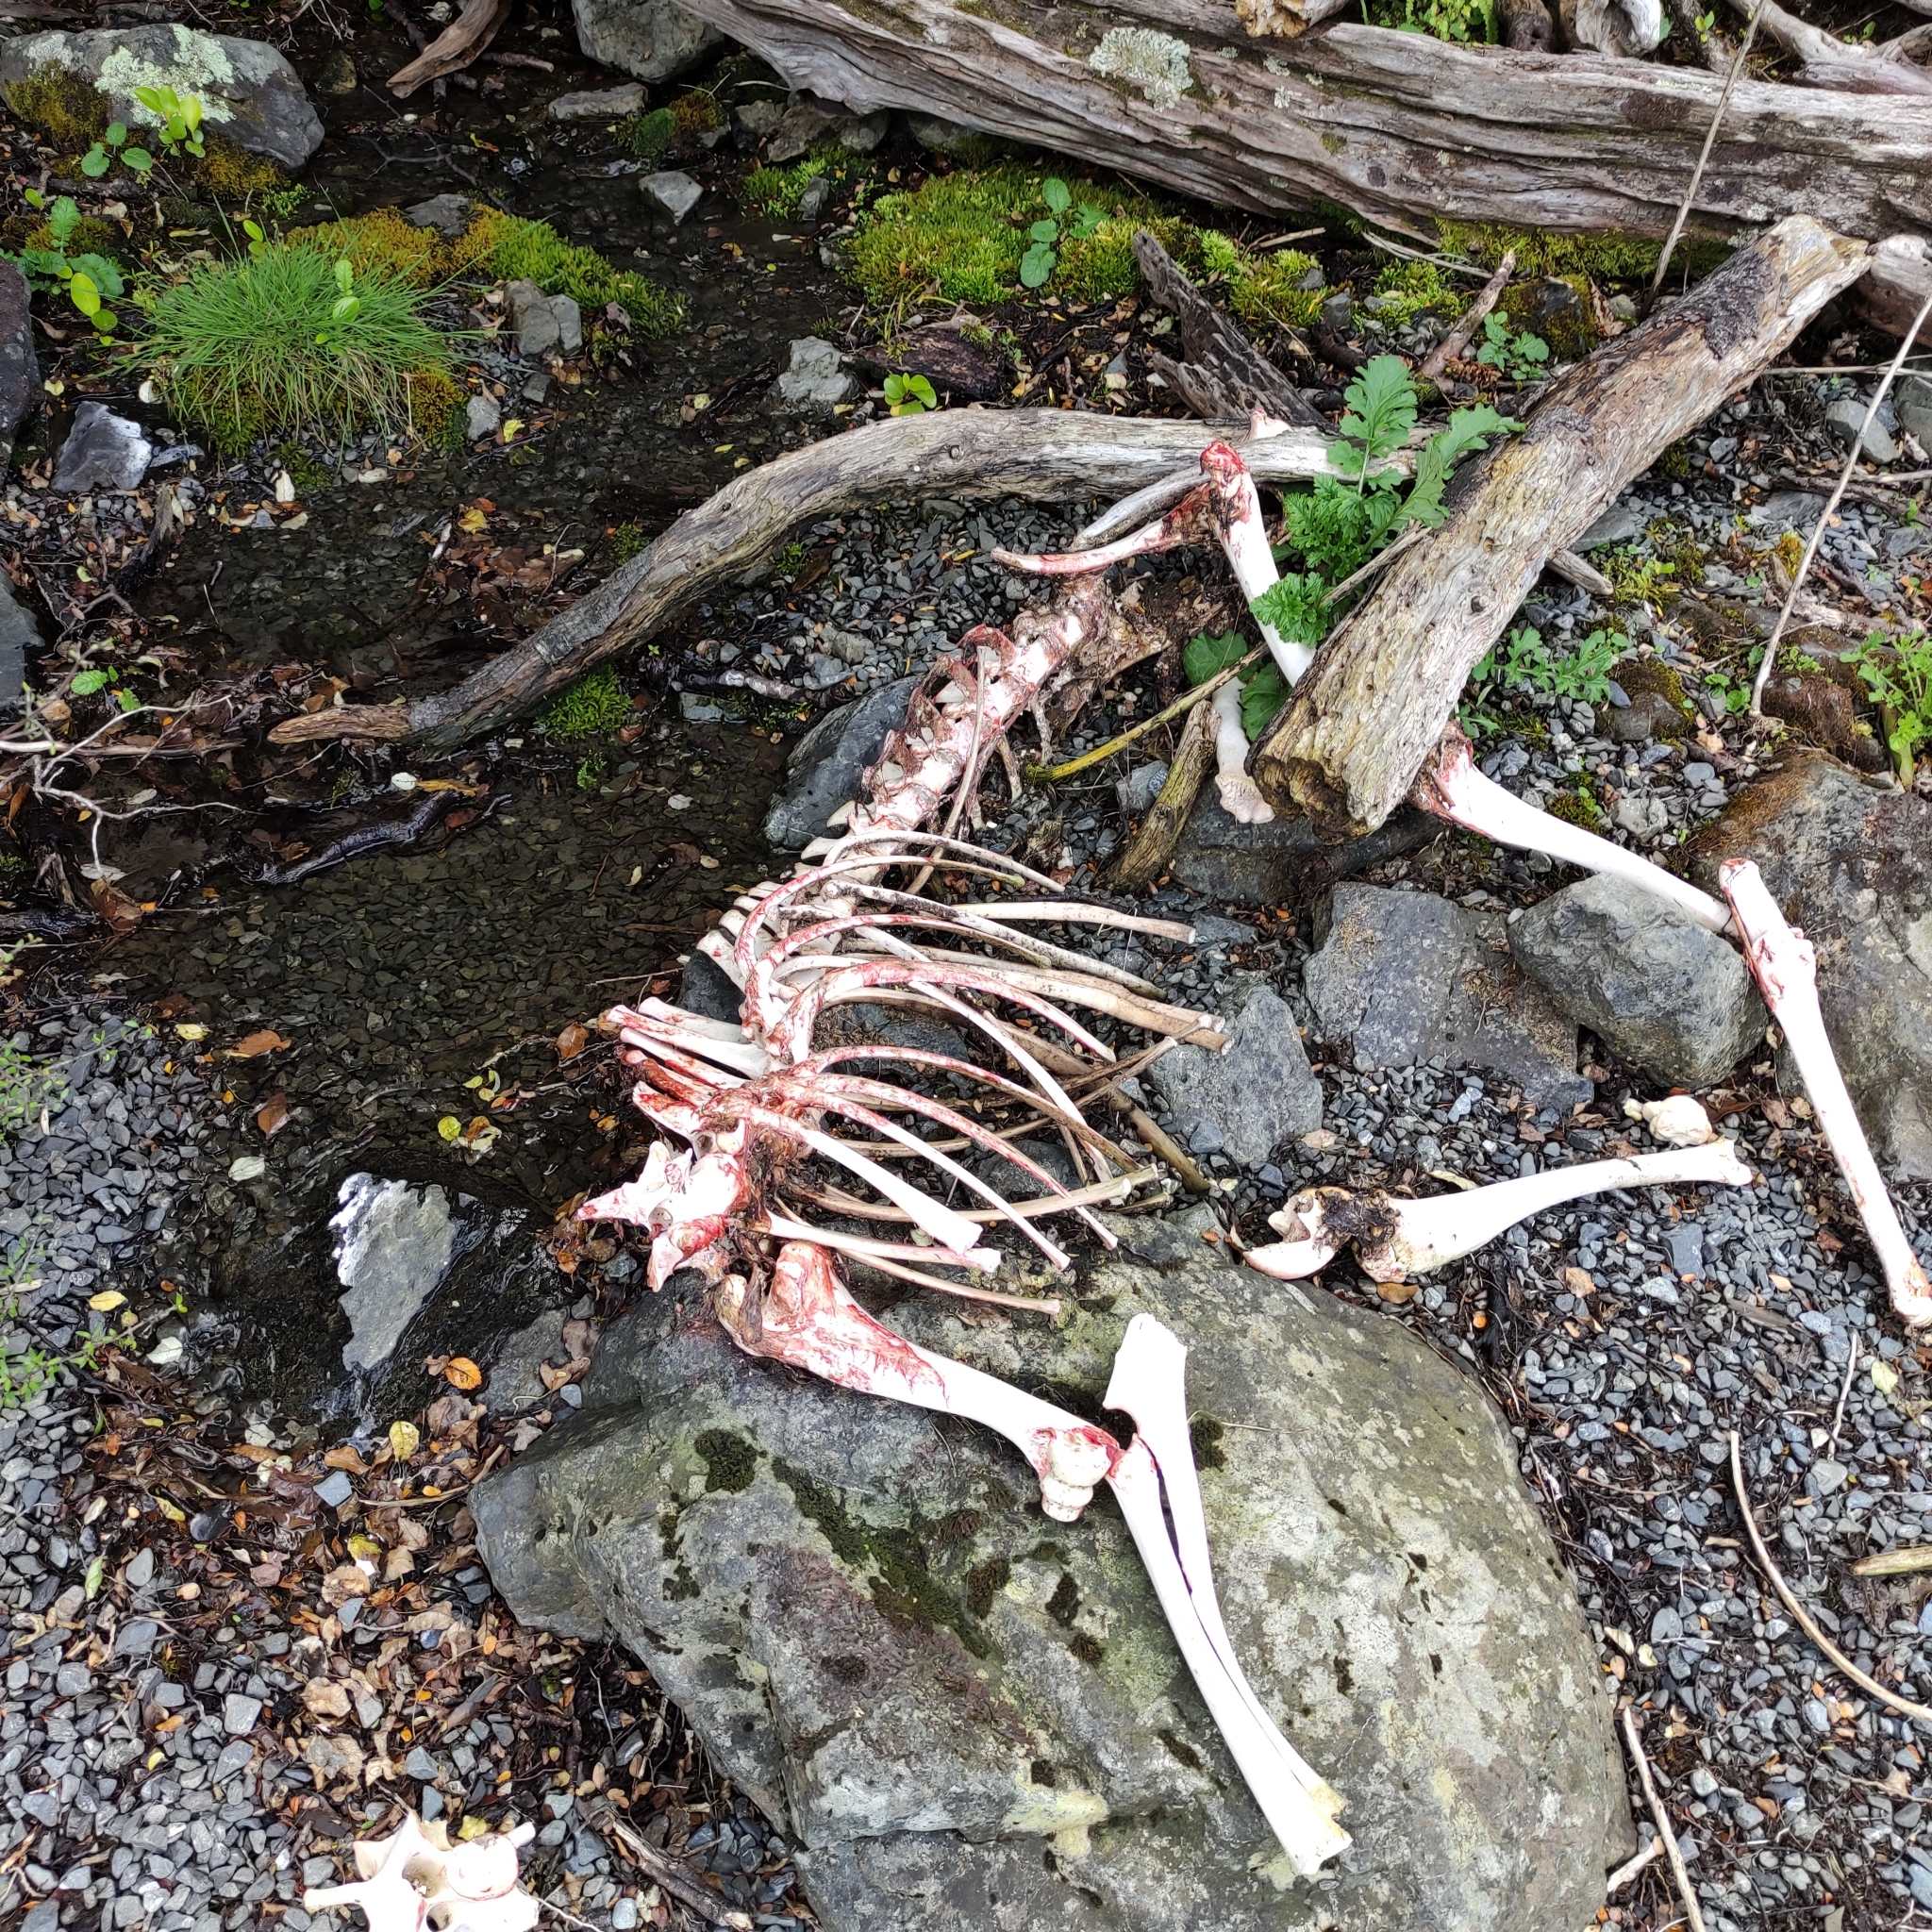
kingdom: Animalia
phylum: Chordata
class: Mammalia
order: Lagomorpha
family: Leporidae
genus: Oryctolagus
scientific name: Oryctolagus cuniculus
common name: European rabbit
